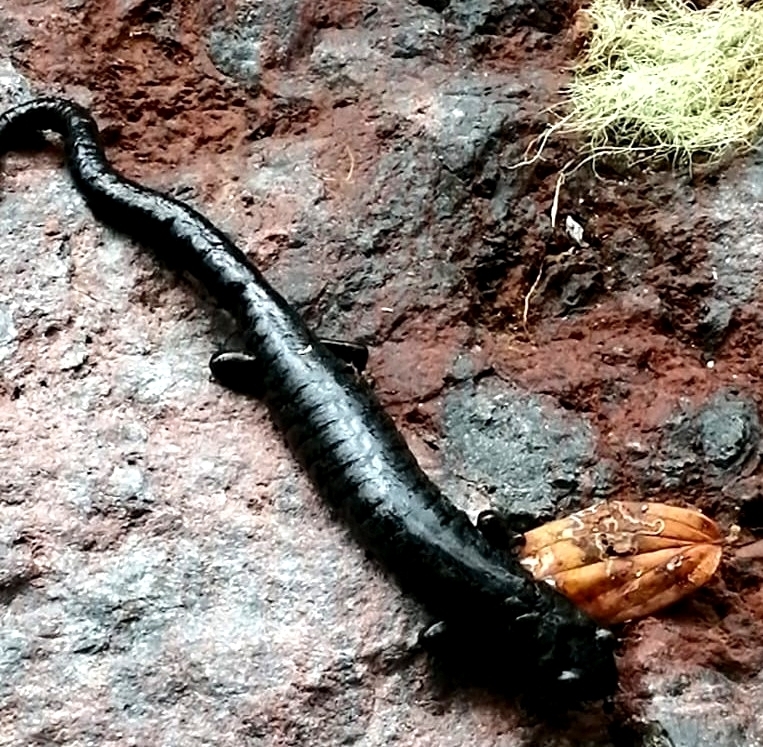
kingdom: Animalia
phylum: Chordata
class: Amphibia
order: Caudata
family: Plethodontidae
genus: Bolitoglossa
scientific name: Bolitoglossa magnifica
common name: Magnificent web-footed salamander
